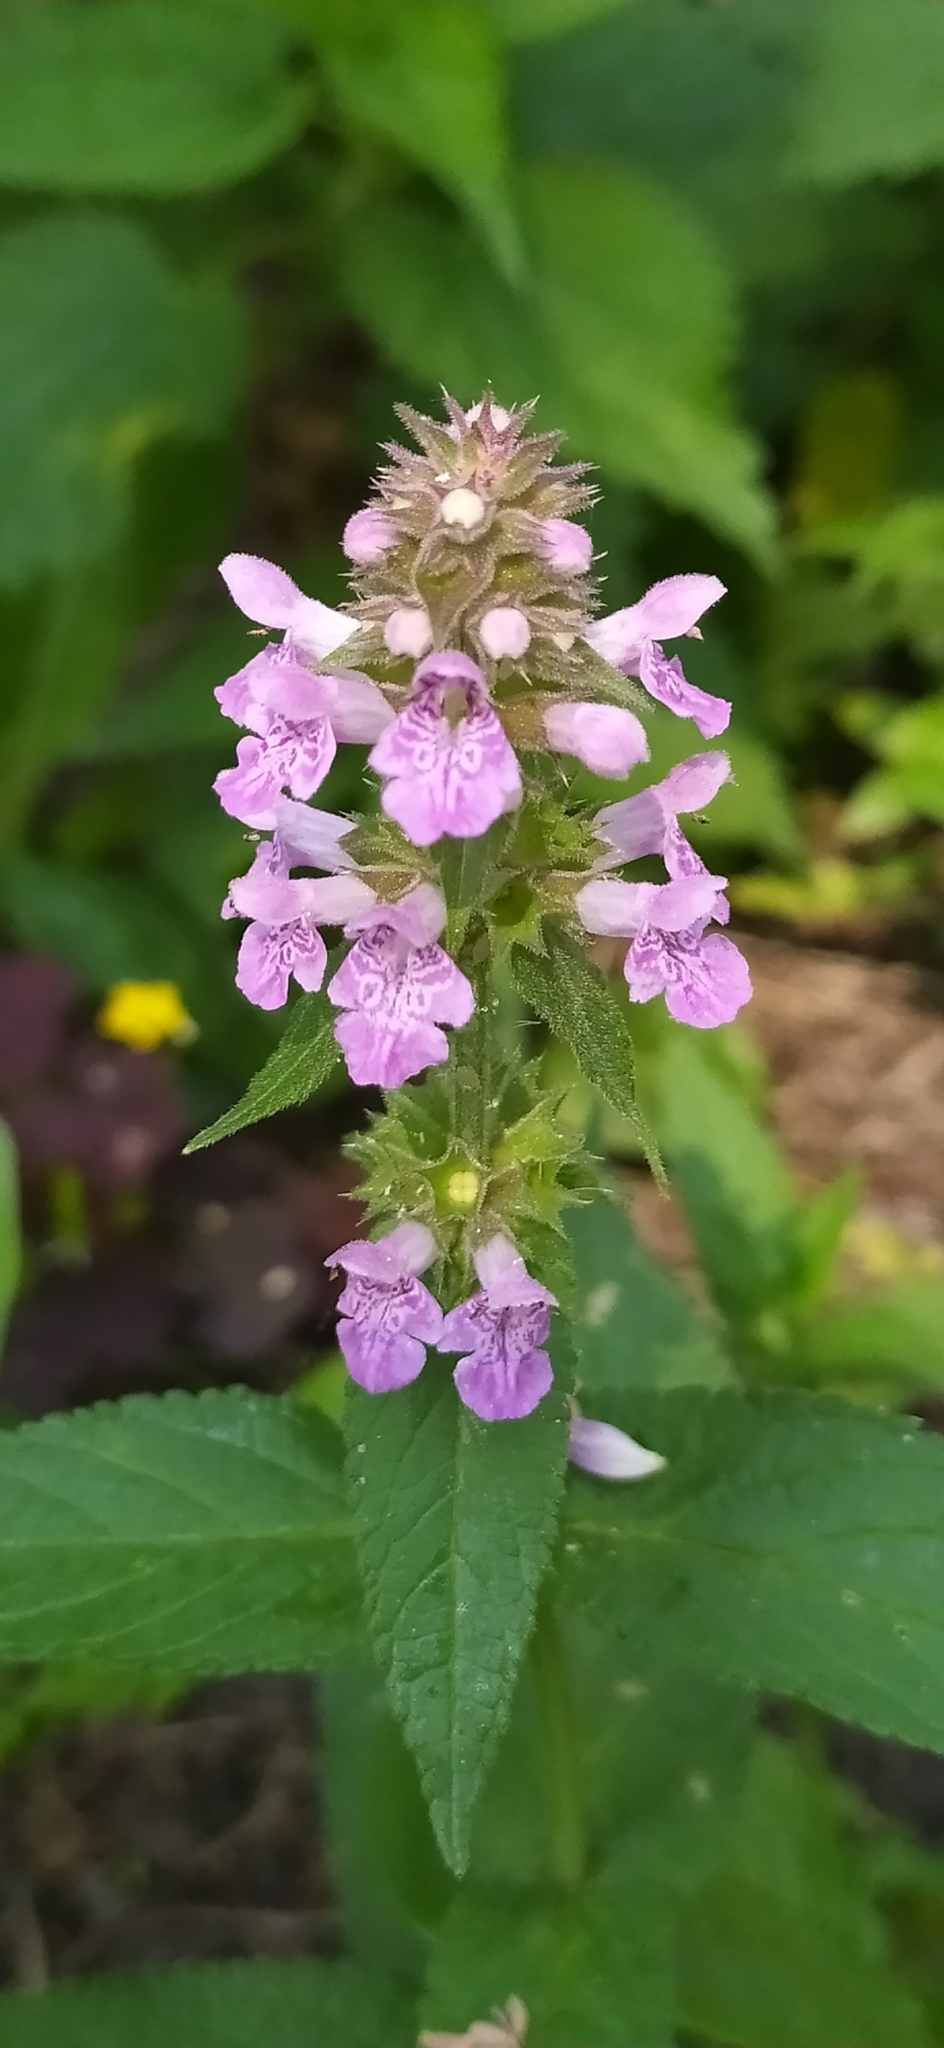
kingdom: Plantae
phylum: Tracheophyta
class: Magnoliopsida
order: Lamiales
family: Lamiaceae
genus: Stachys
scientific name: Stachys palustris
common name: Marsh woundwort
